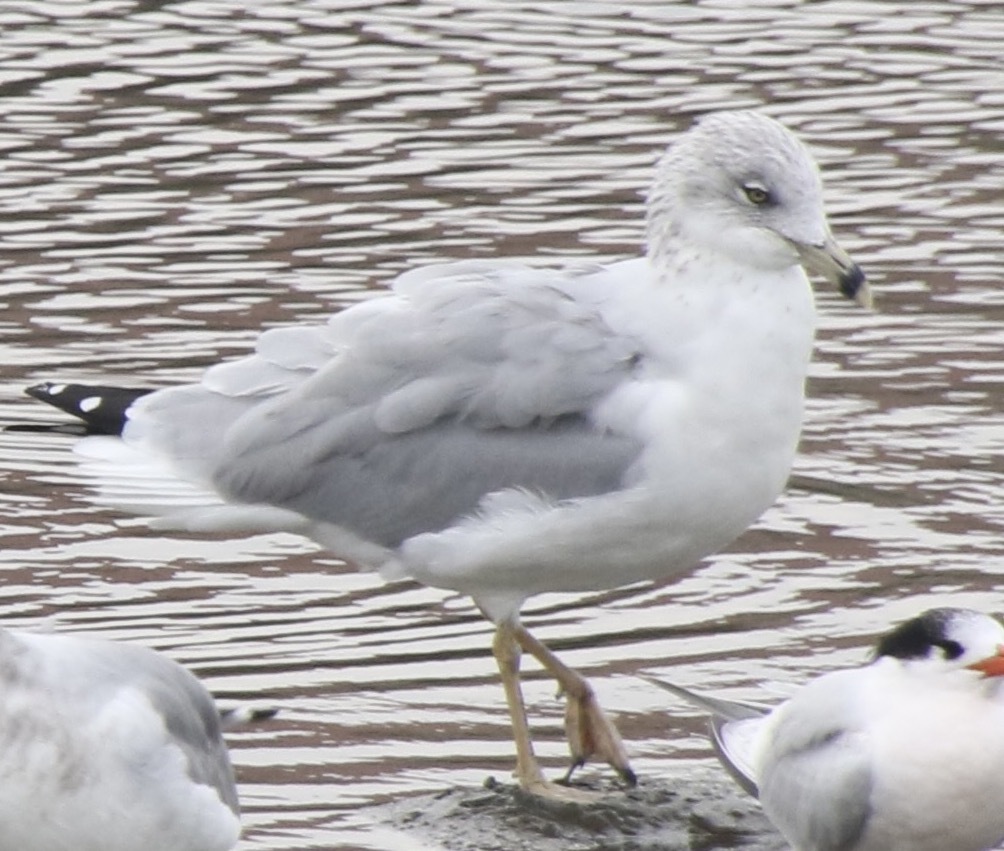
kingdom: Animalia
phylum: Chordata
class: Aves
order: Charadriiformes
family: Laridae
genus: Larus
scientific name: Larus delawarensis
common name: Ring-billed gull
